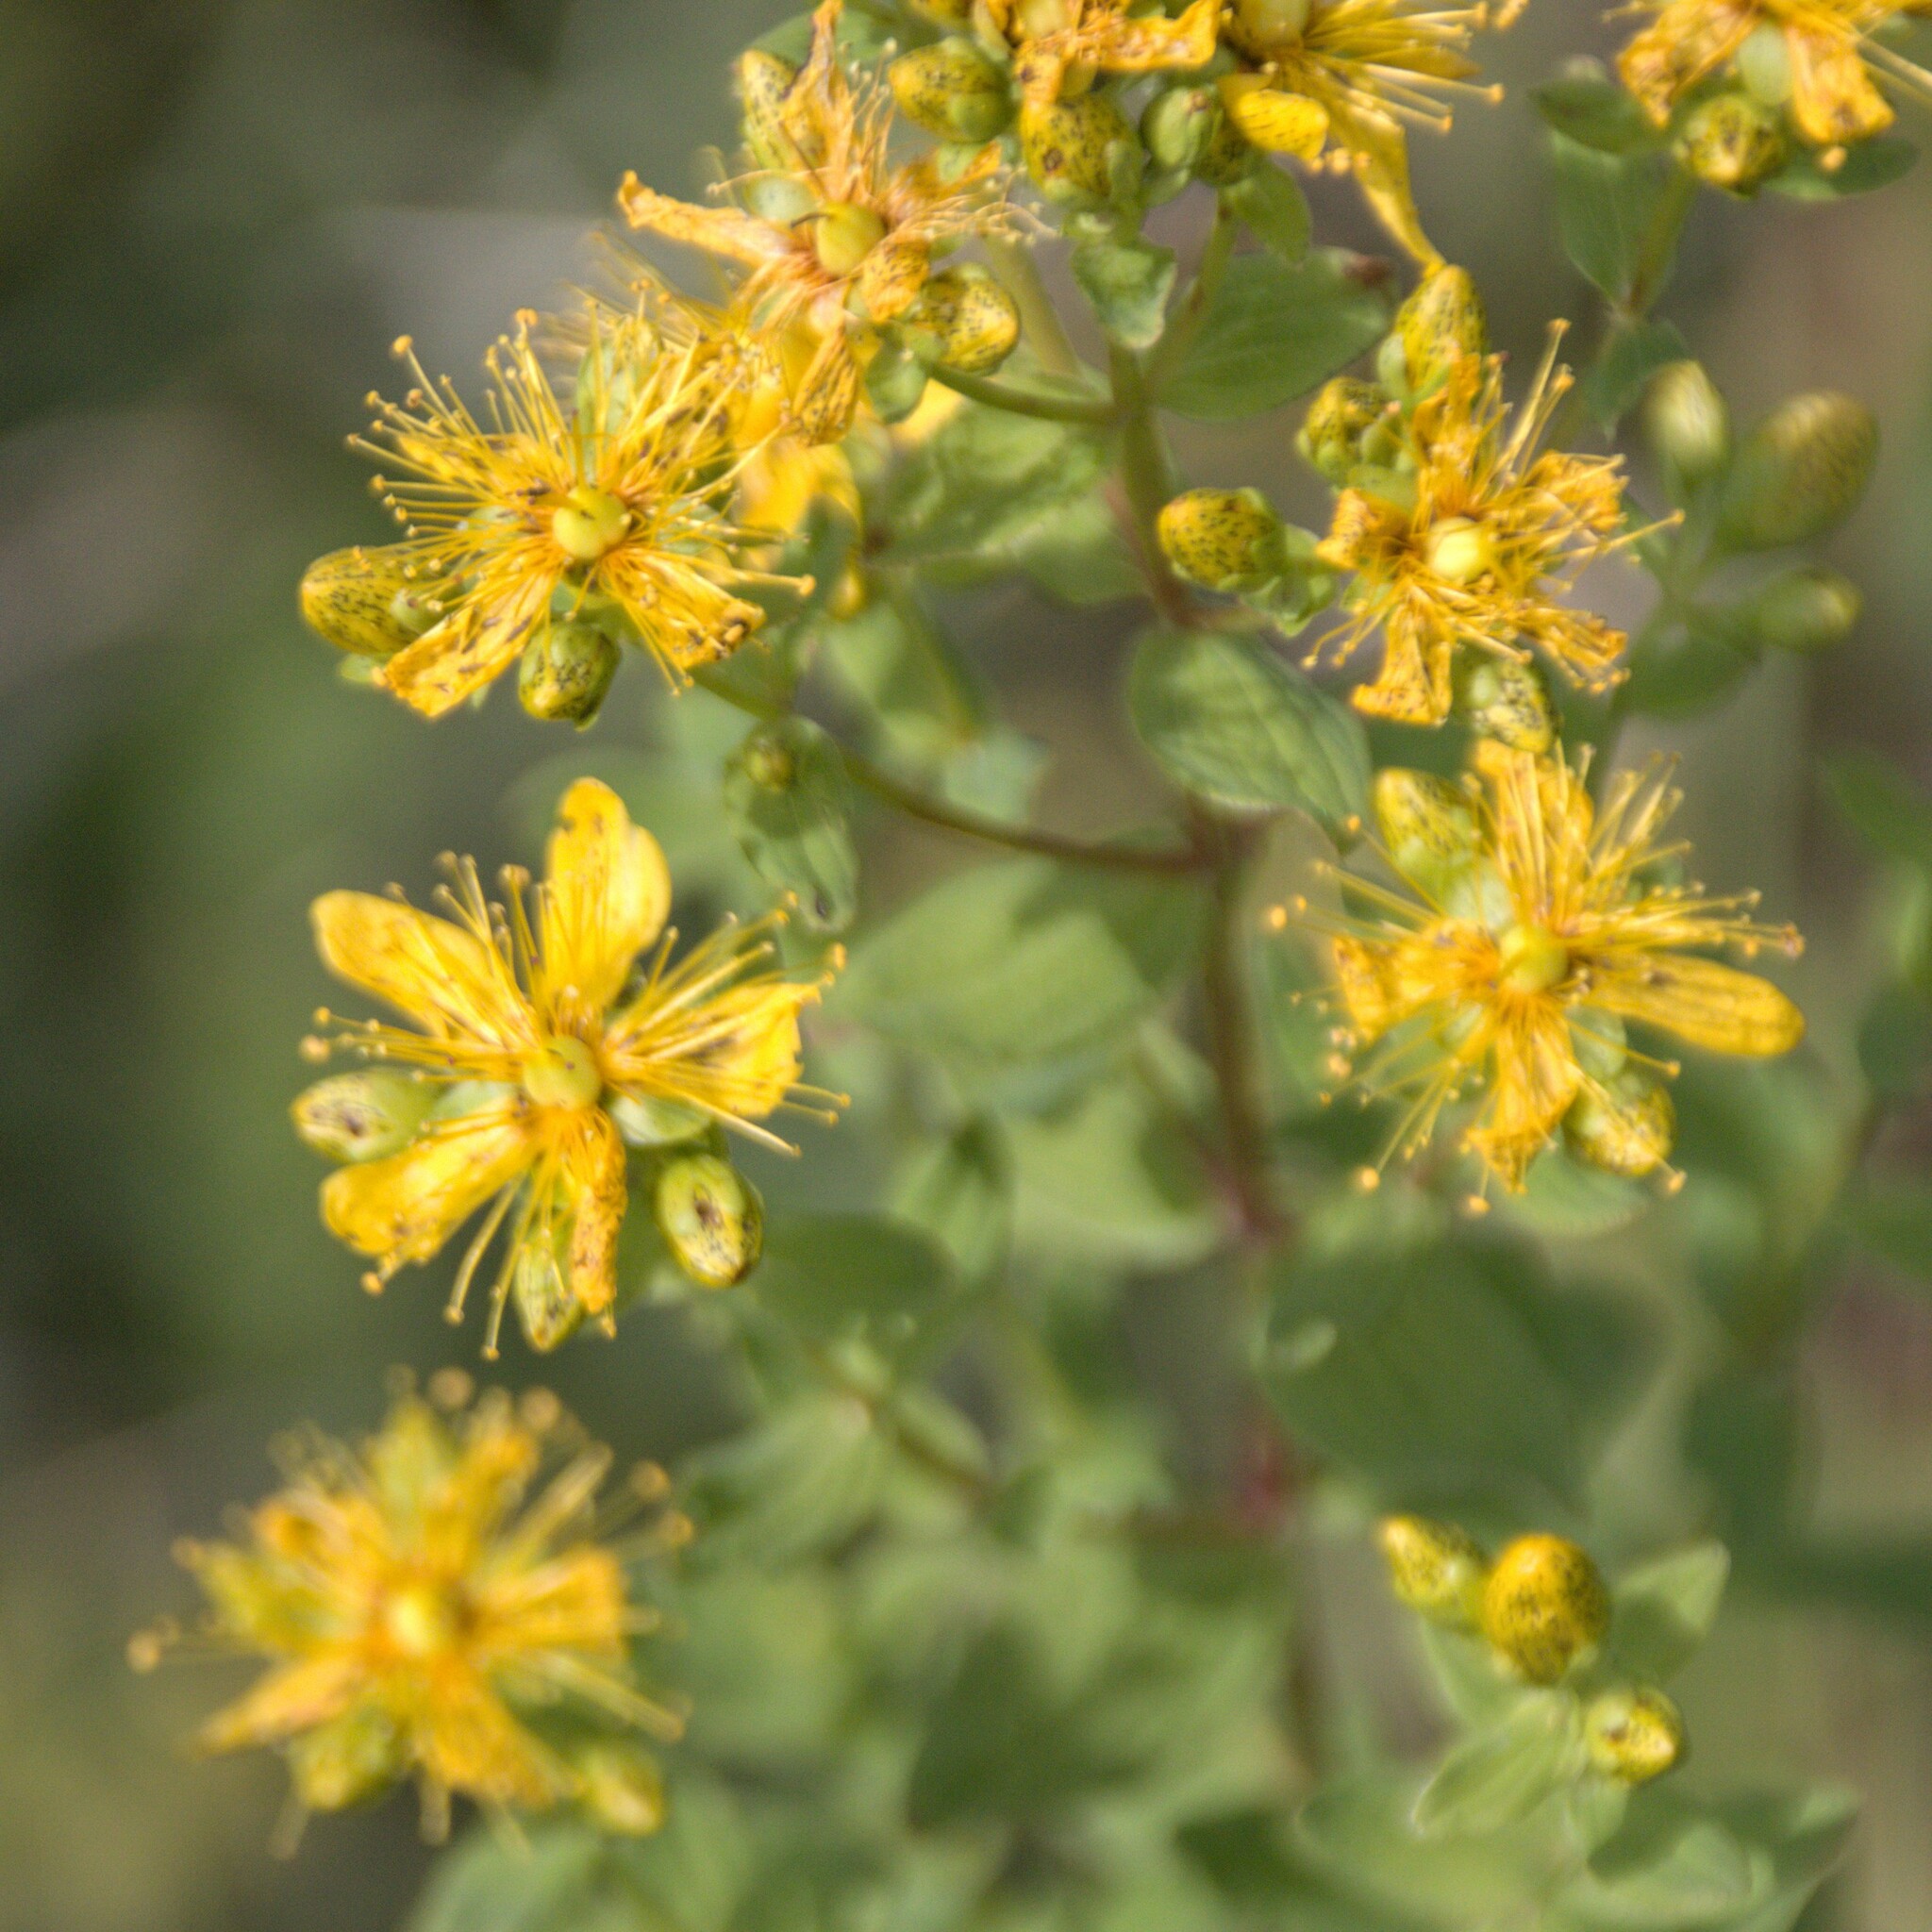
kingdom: Plantae
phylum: Tracheophyta
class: Magnoliopsida
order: Malpighiales
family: Hypericaceae
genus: Hypericum
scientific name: Hypericum maculatum
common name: Imperforate st. john's-wort
